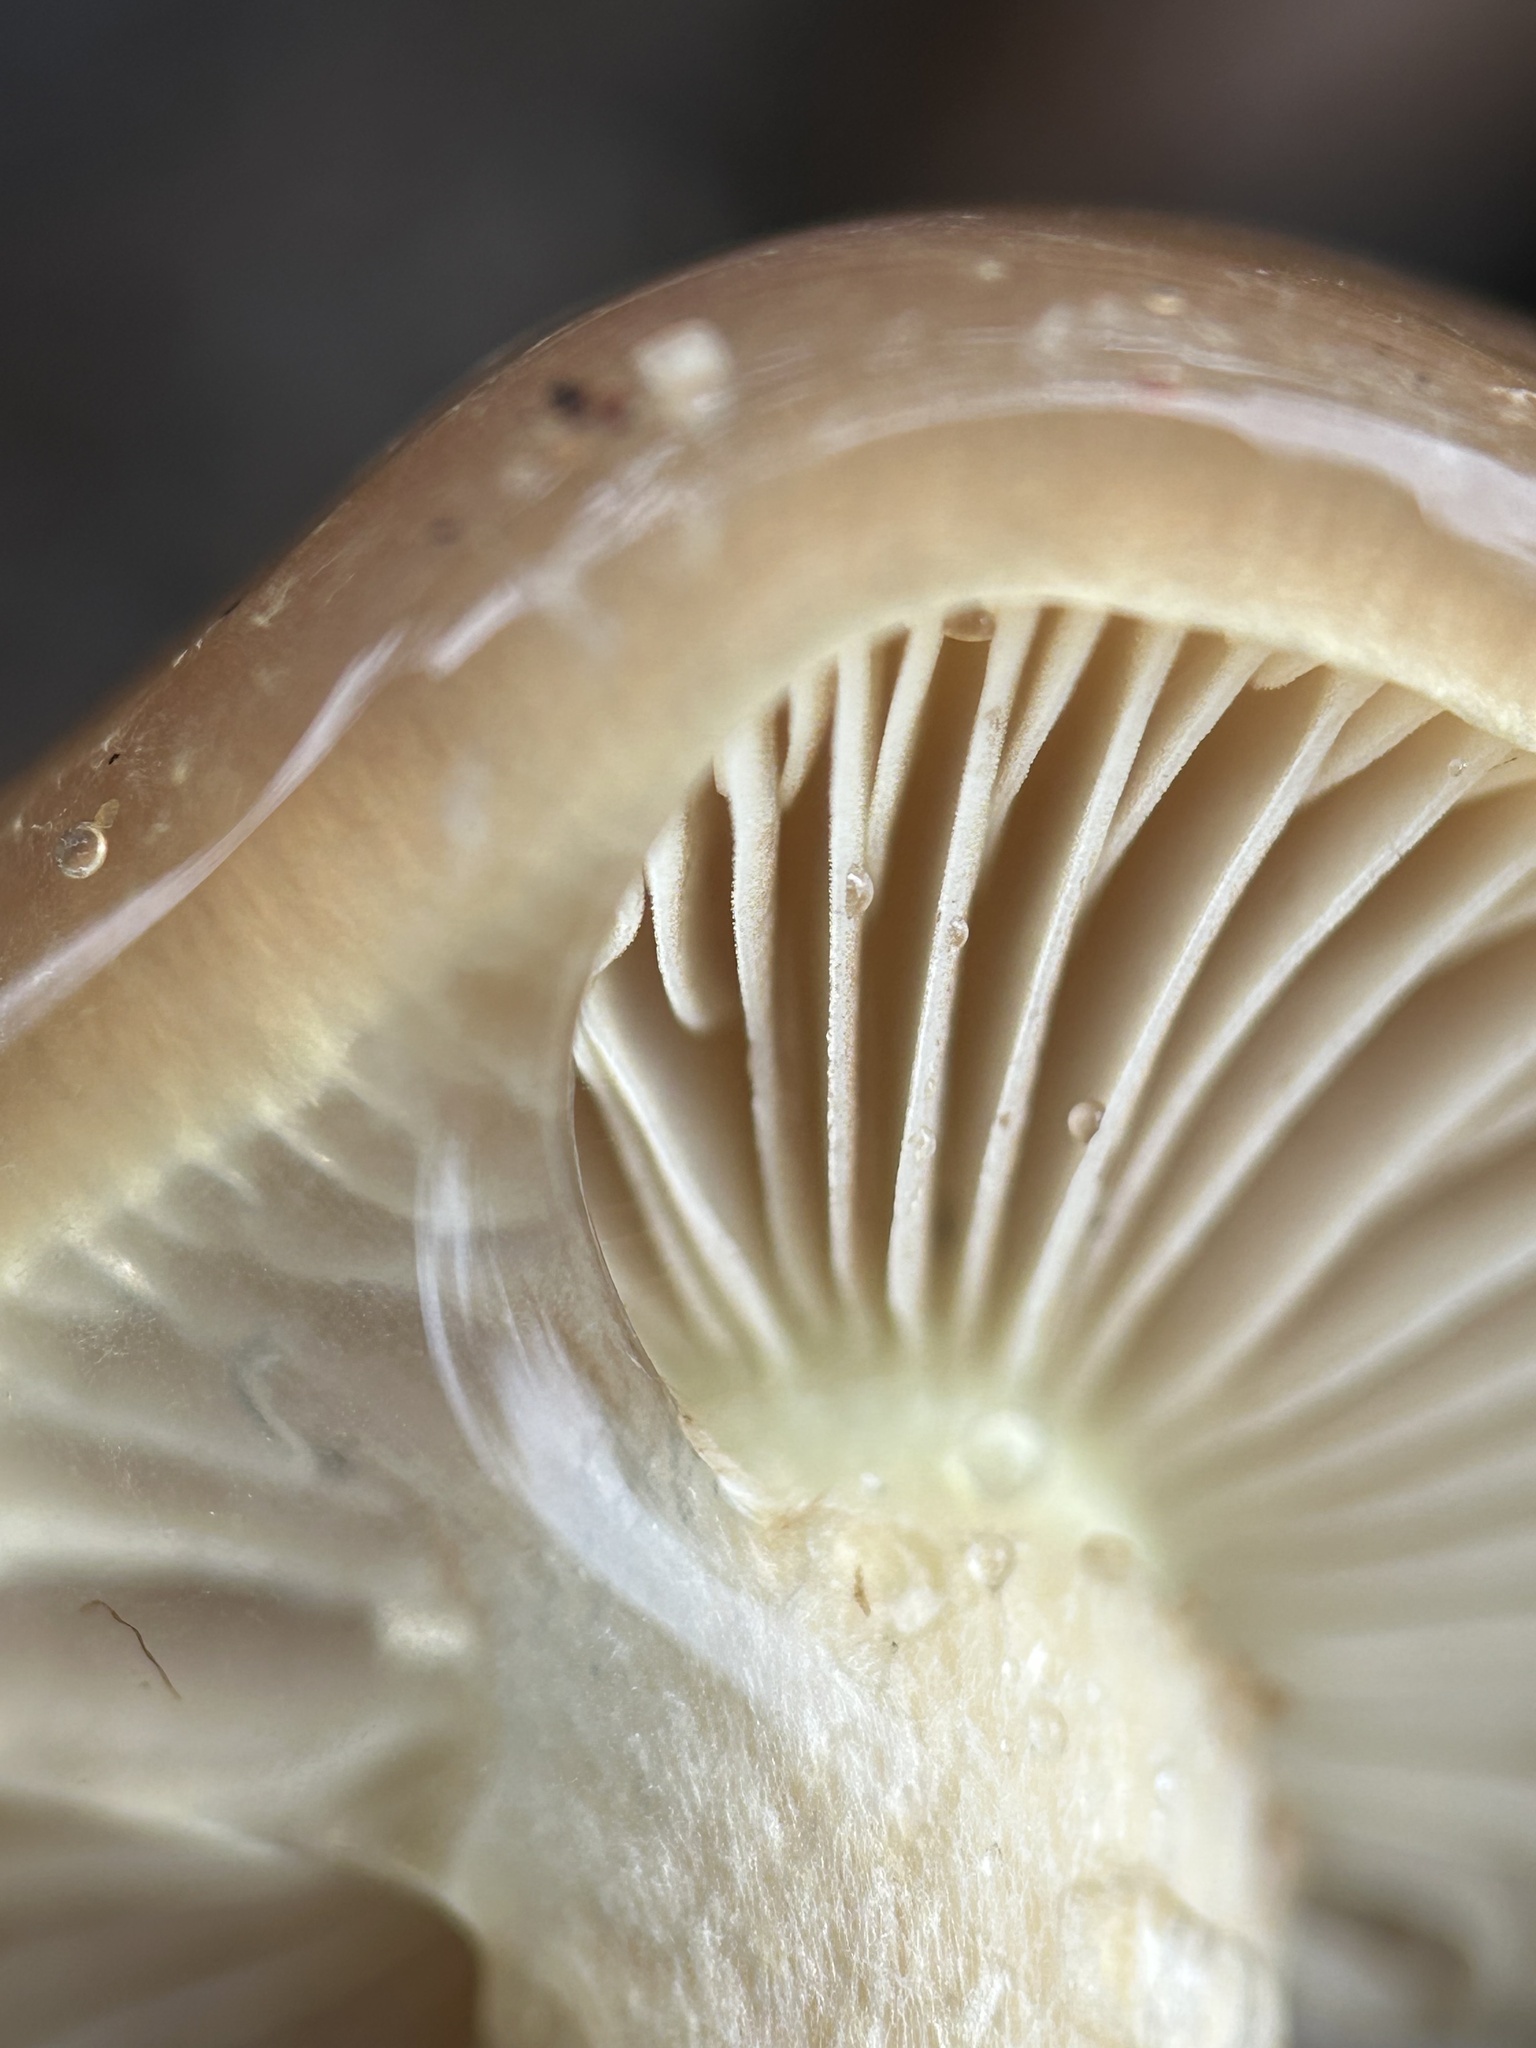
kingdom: Fungi
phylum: Basidiomycota
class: Agaricomycetes
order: Agaricales
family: Strophariaceae
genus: Pholiota
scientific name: Pholiota velaglutinosa
